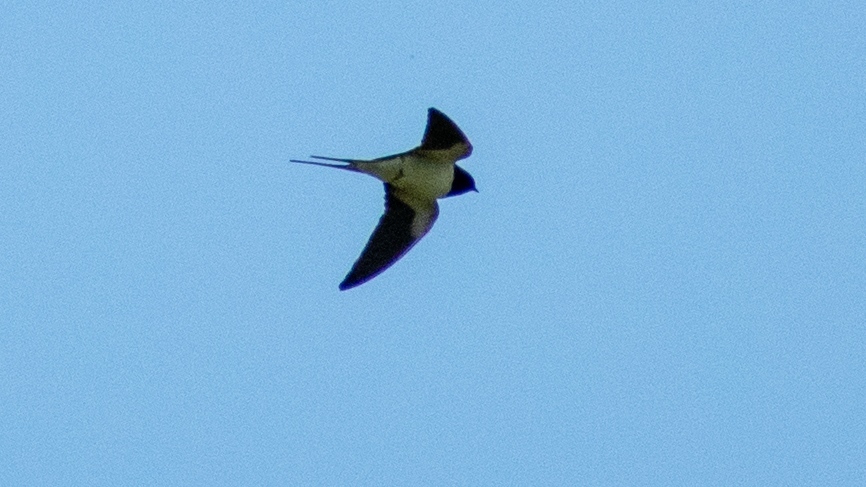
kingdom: Animalia
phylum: Chordata
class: Aves
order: Passeriformes
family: Hirundinidae
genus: Hirundo
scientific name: Hirundo rustica
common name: Barn swallow
